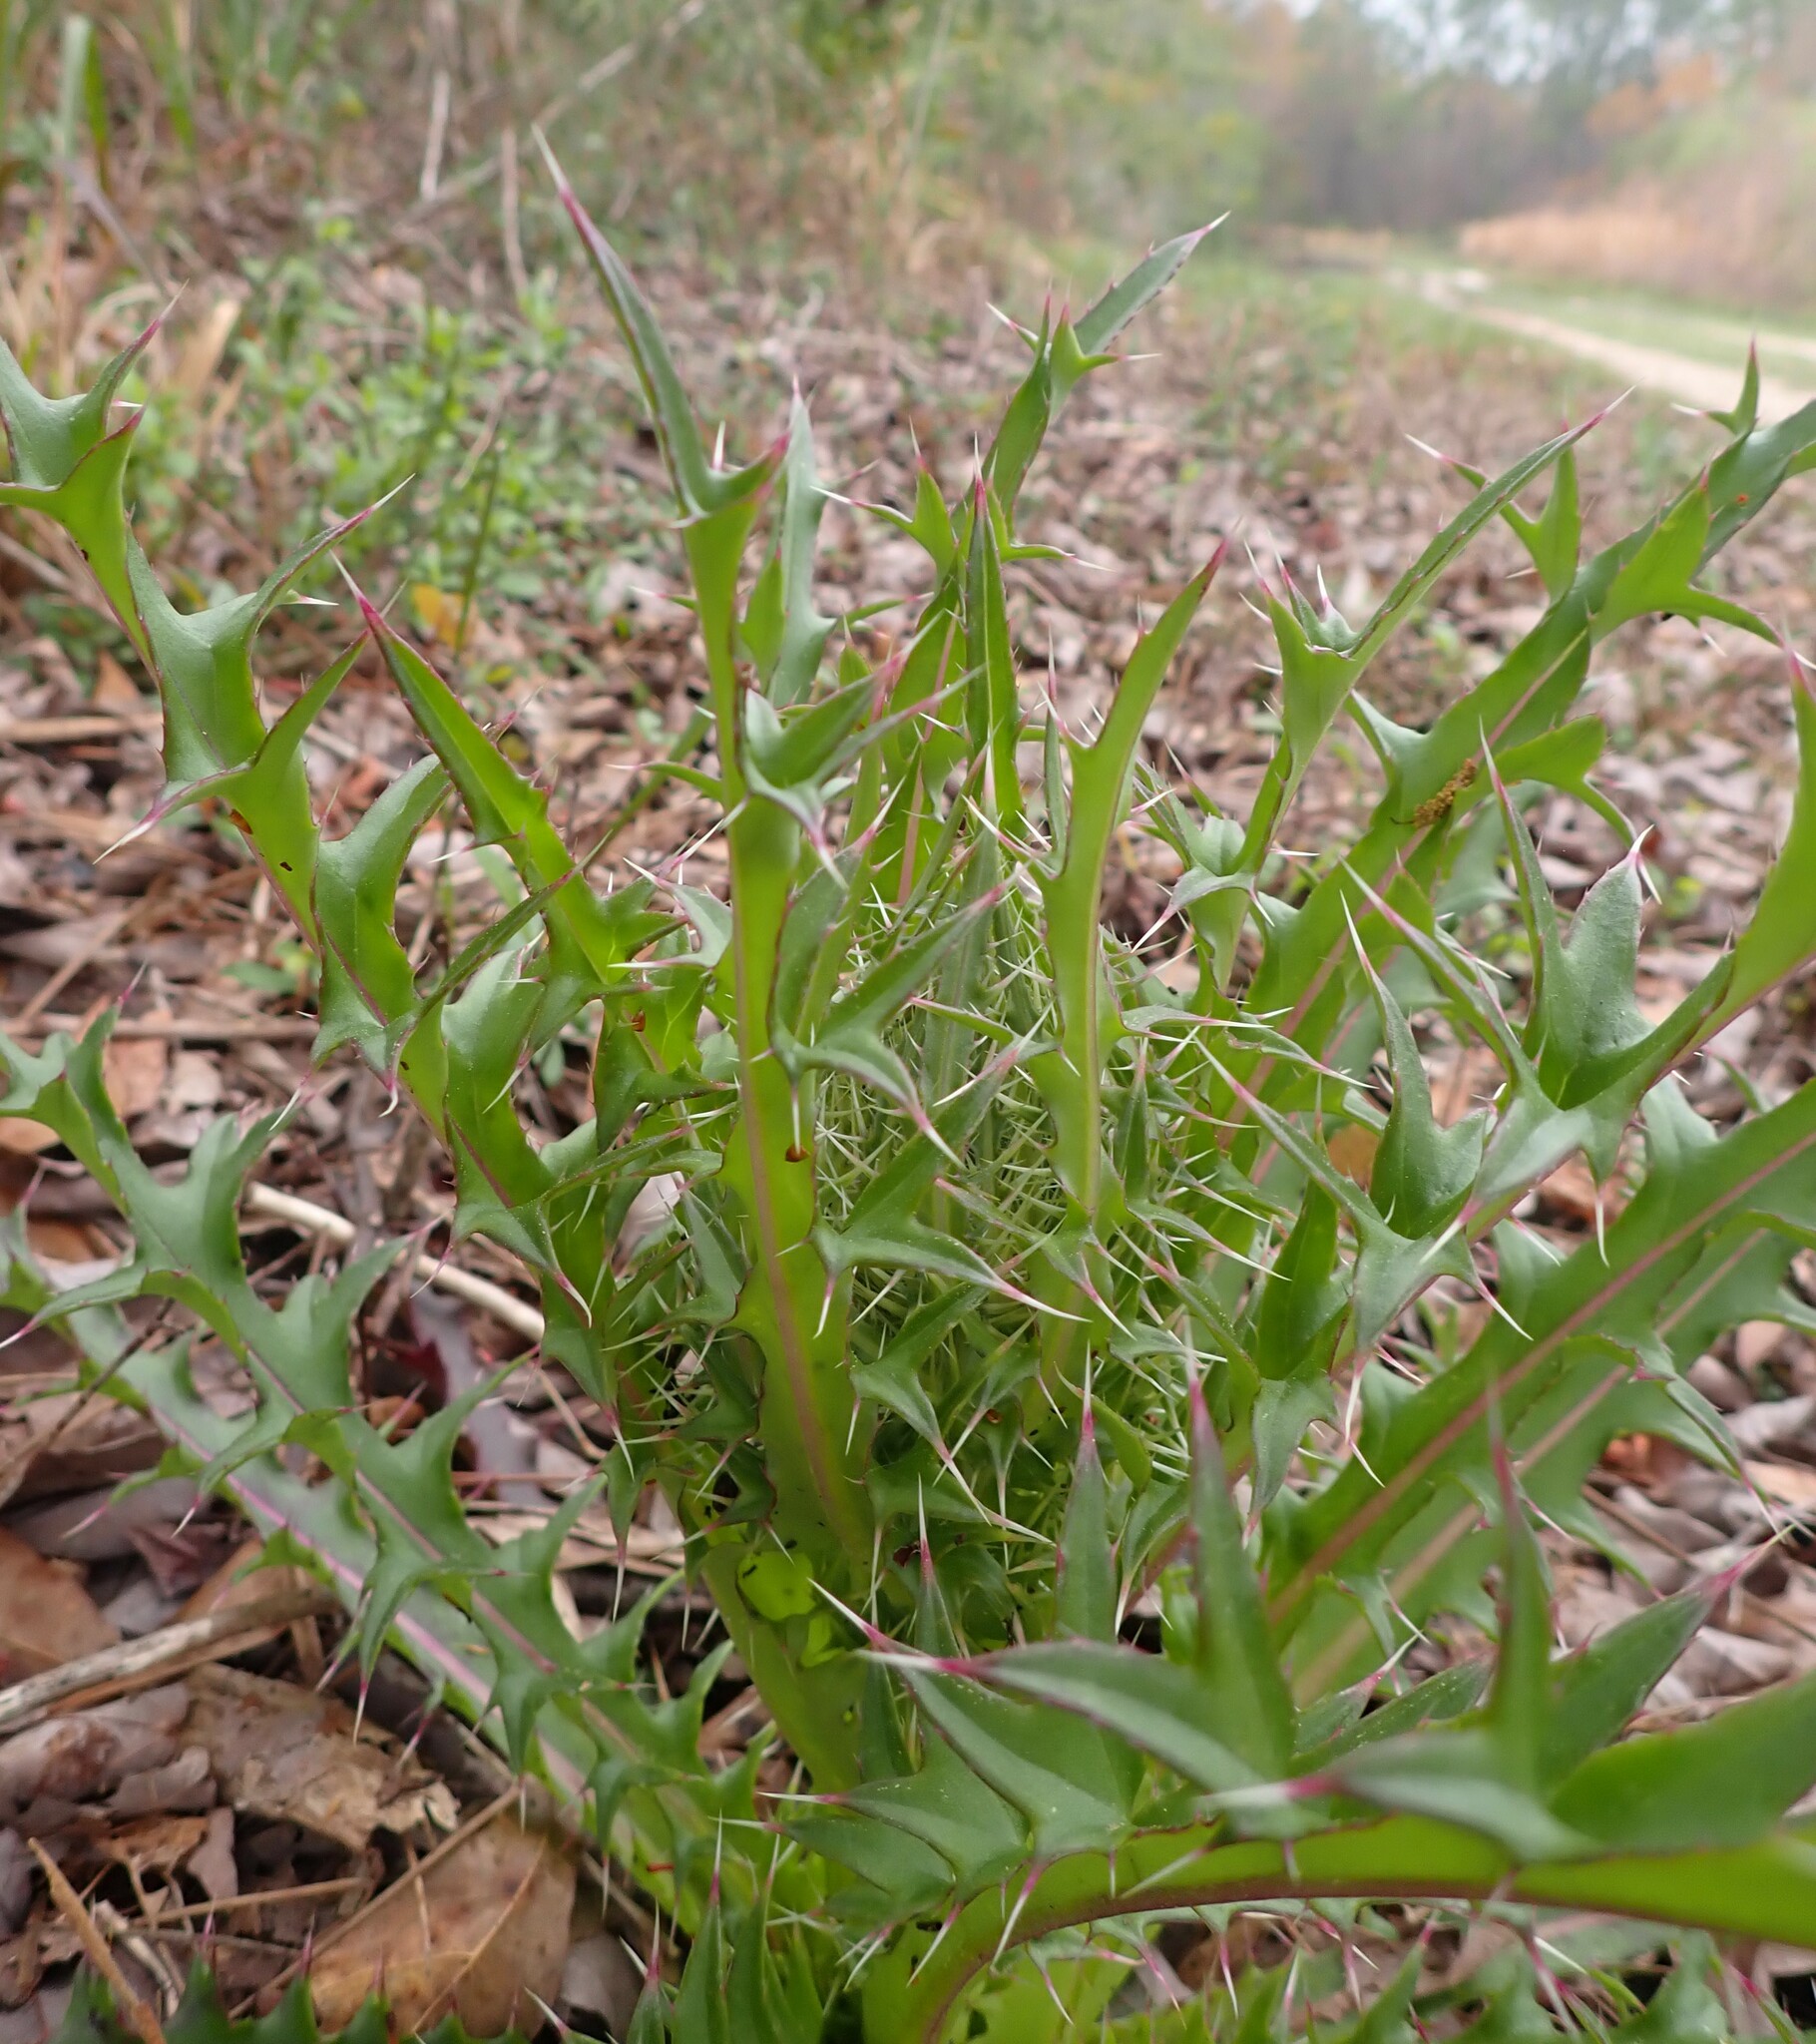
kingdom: Plantae
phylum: Tracheophyta
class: Magnoliopsida
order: Asterales
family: Asteraceae
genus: Cirsium
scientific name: Cirsium horridulum
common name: Bristly thistle
